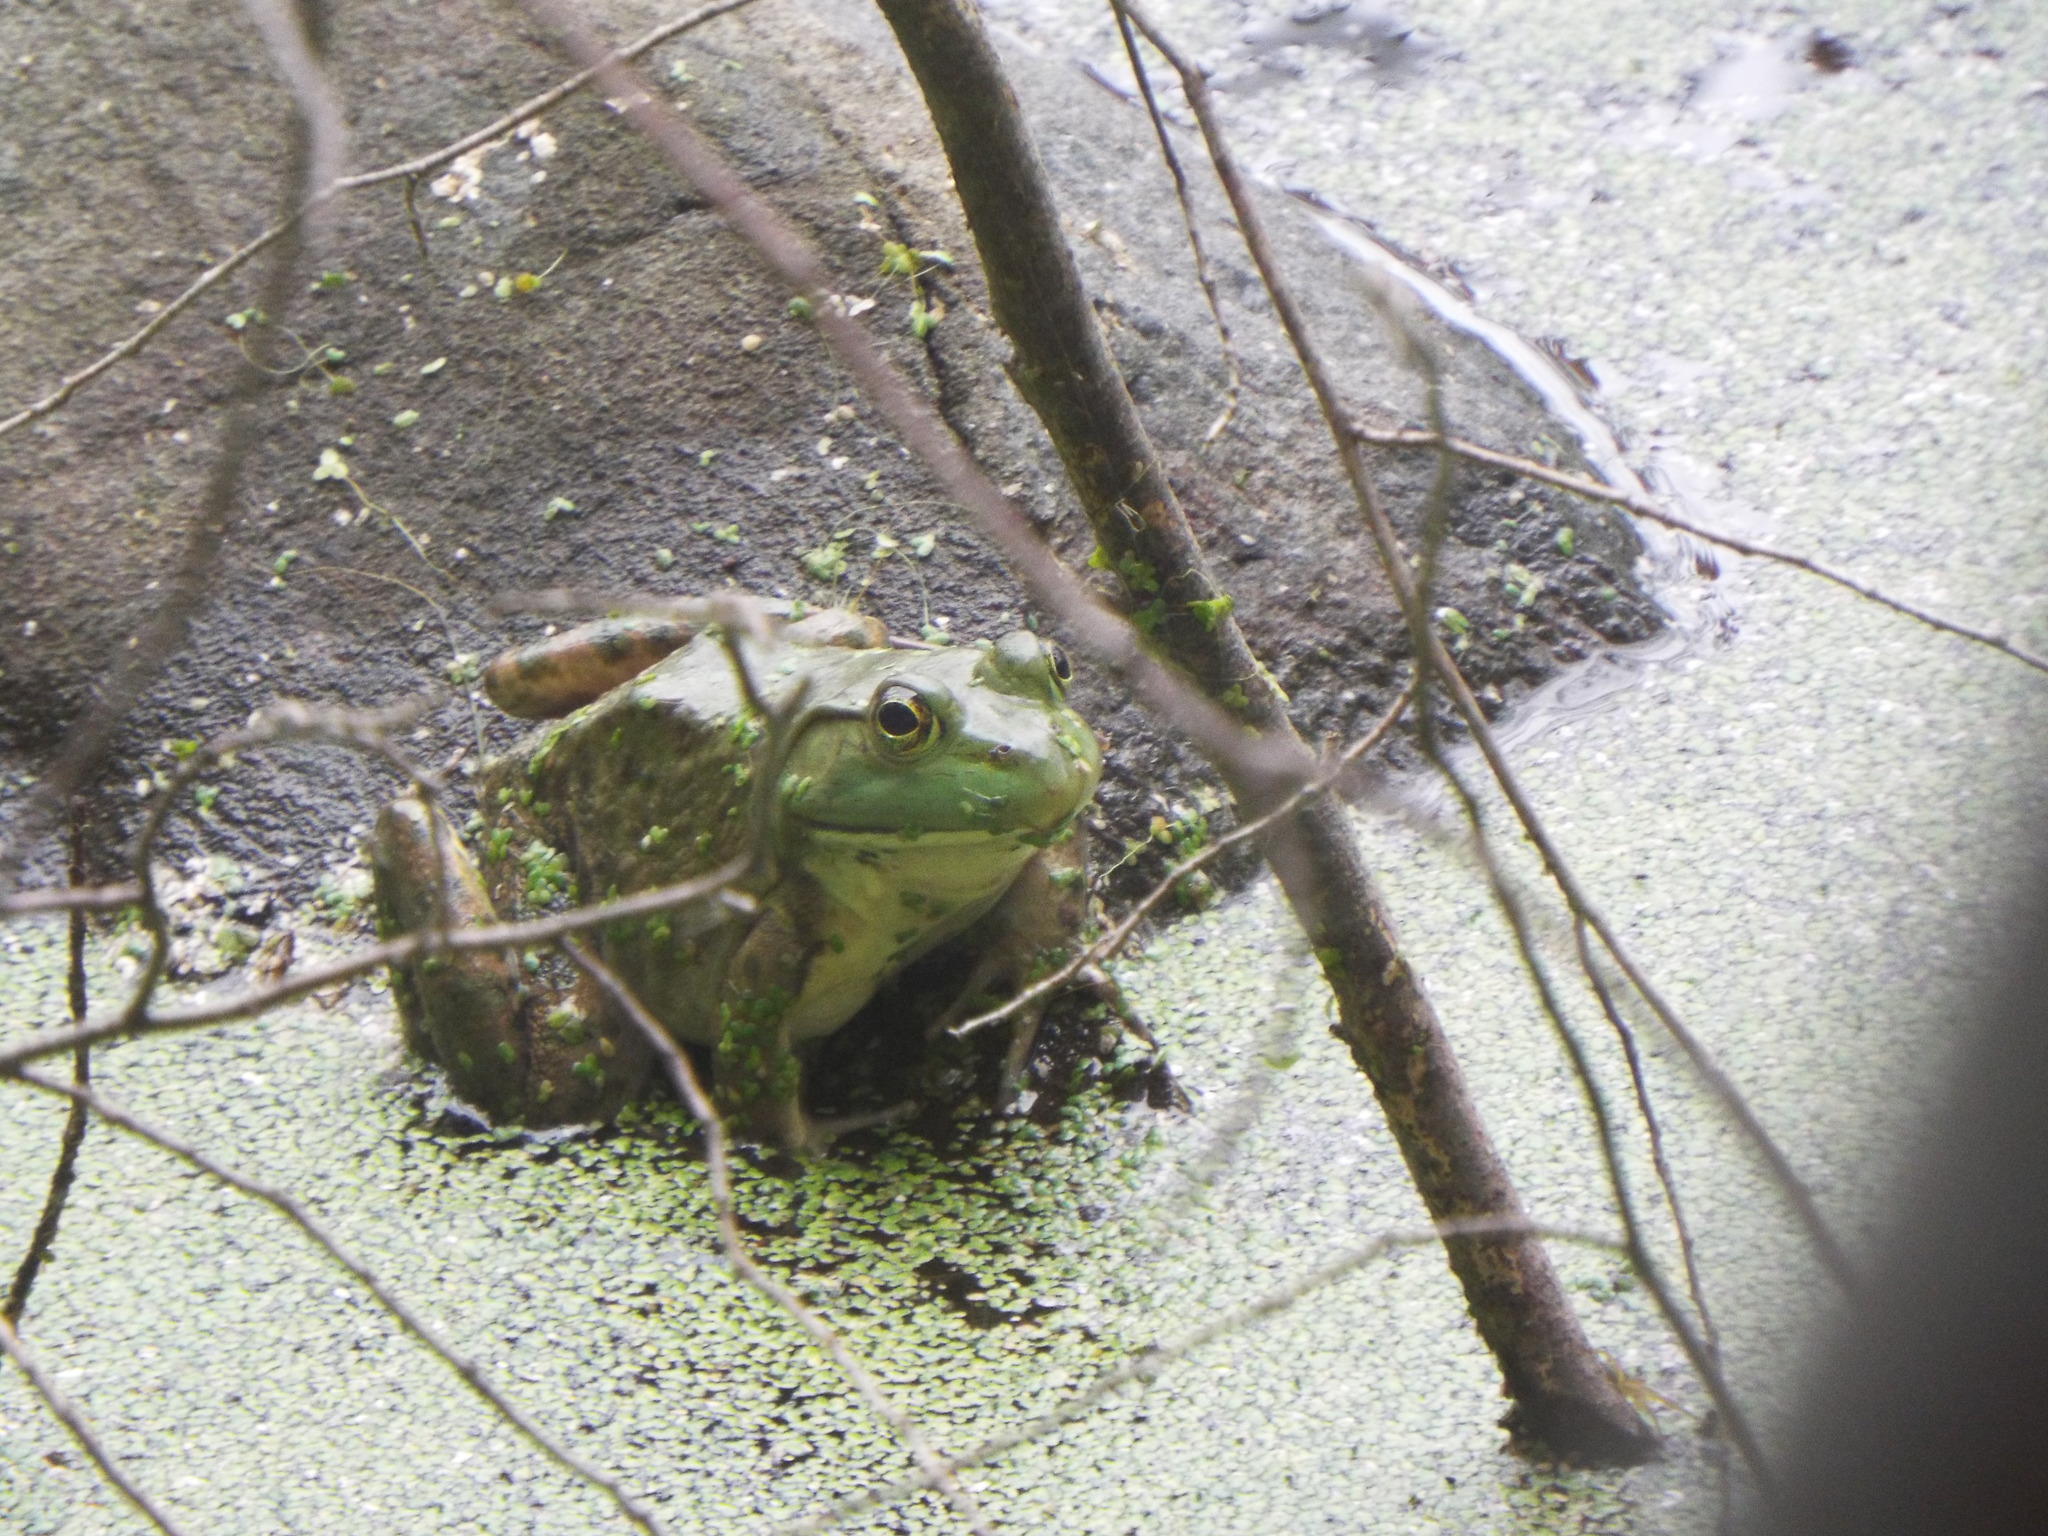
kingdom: Animalia
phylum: Chordata
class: Amphibia
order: Anura
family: Ranidae
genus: Lithobates
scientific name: Lithobates catesbeianus
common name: American bullfrog
